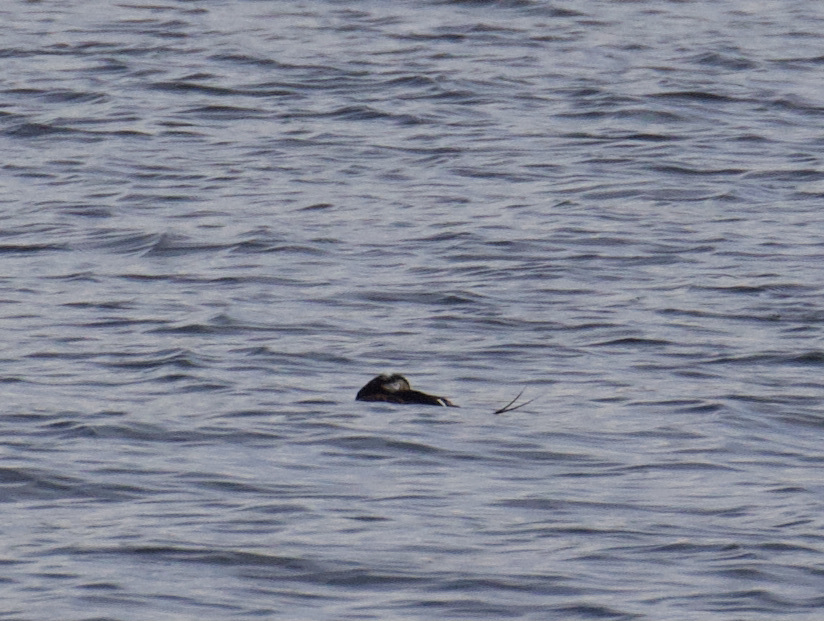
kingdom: Animalia
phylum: Chordata
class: Aves
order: Anseriformes
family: Anatidae
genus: Clangula
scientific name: Clangula hyemalis
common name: Long-tailed duck
